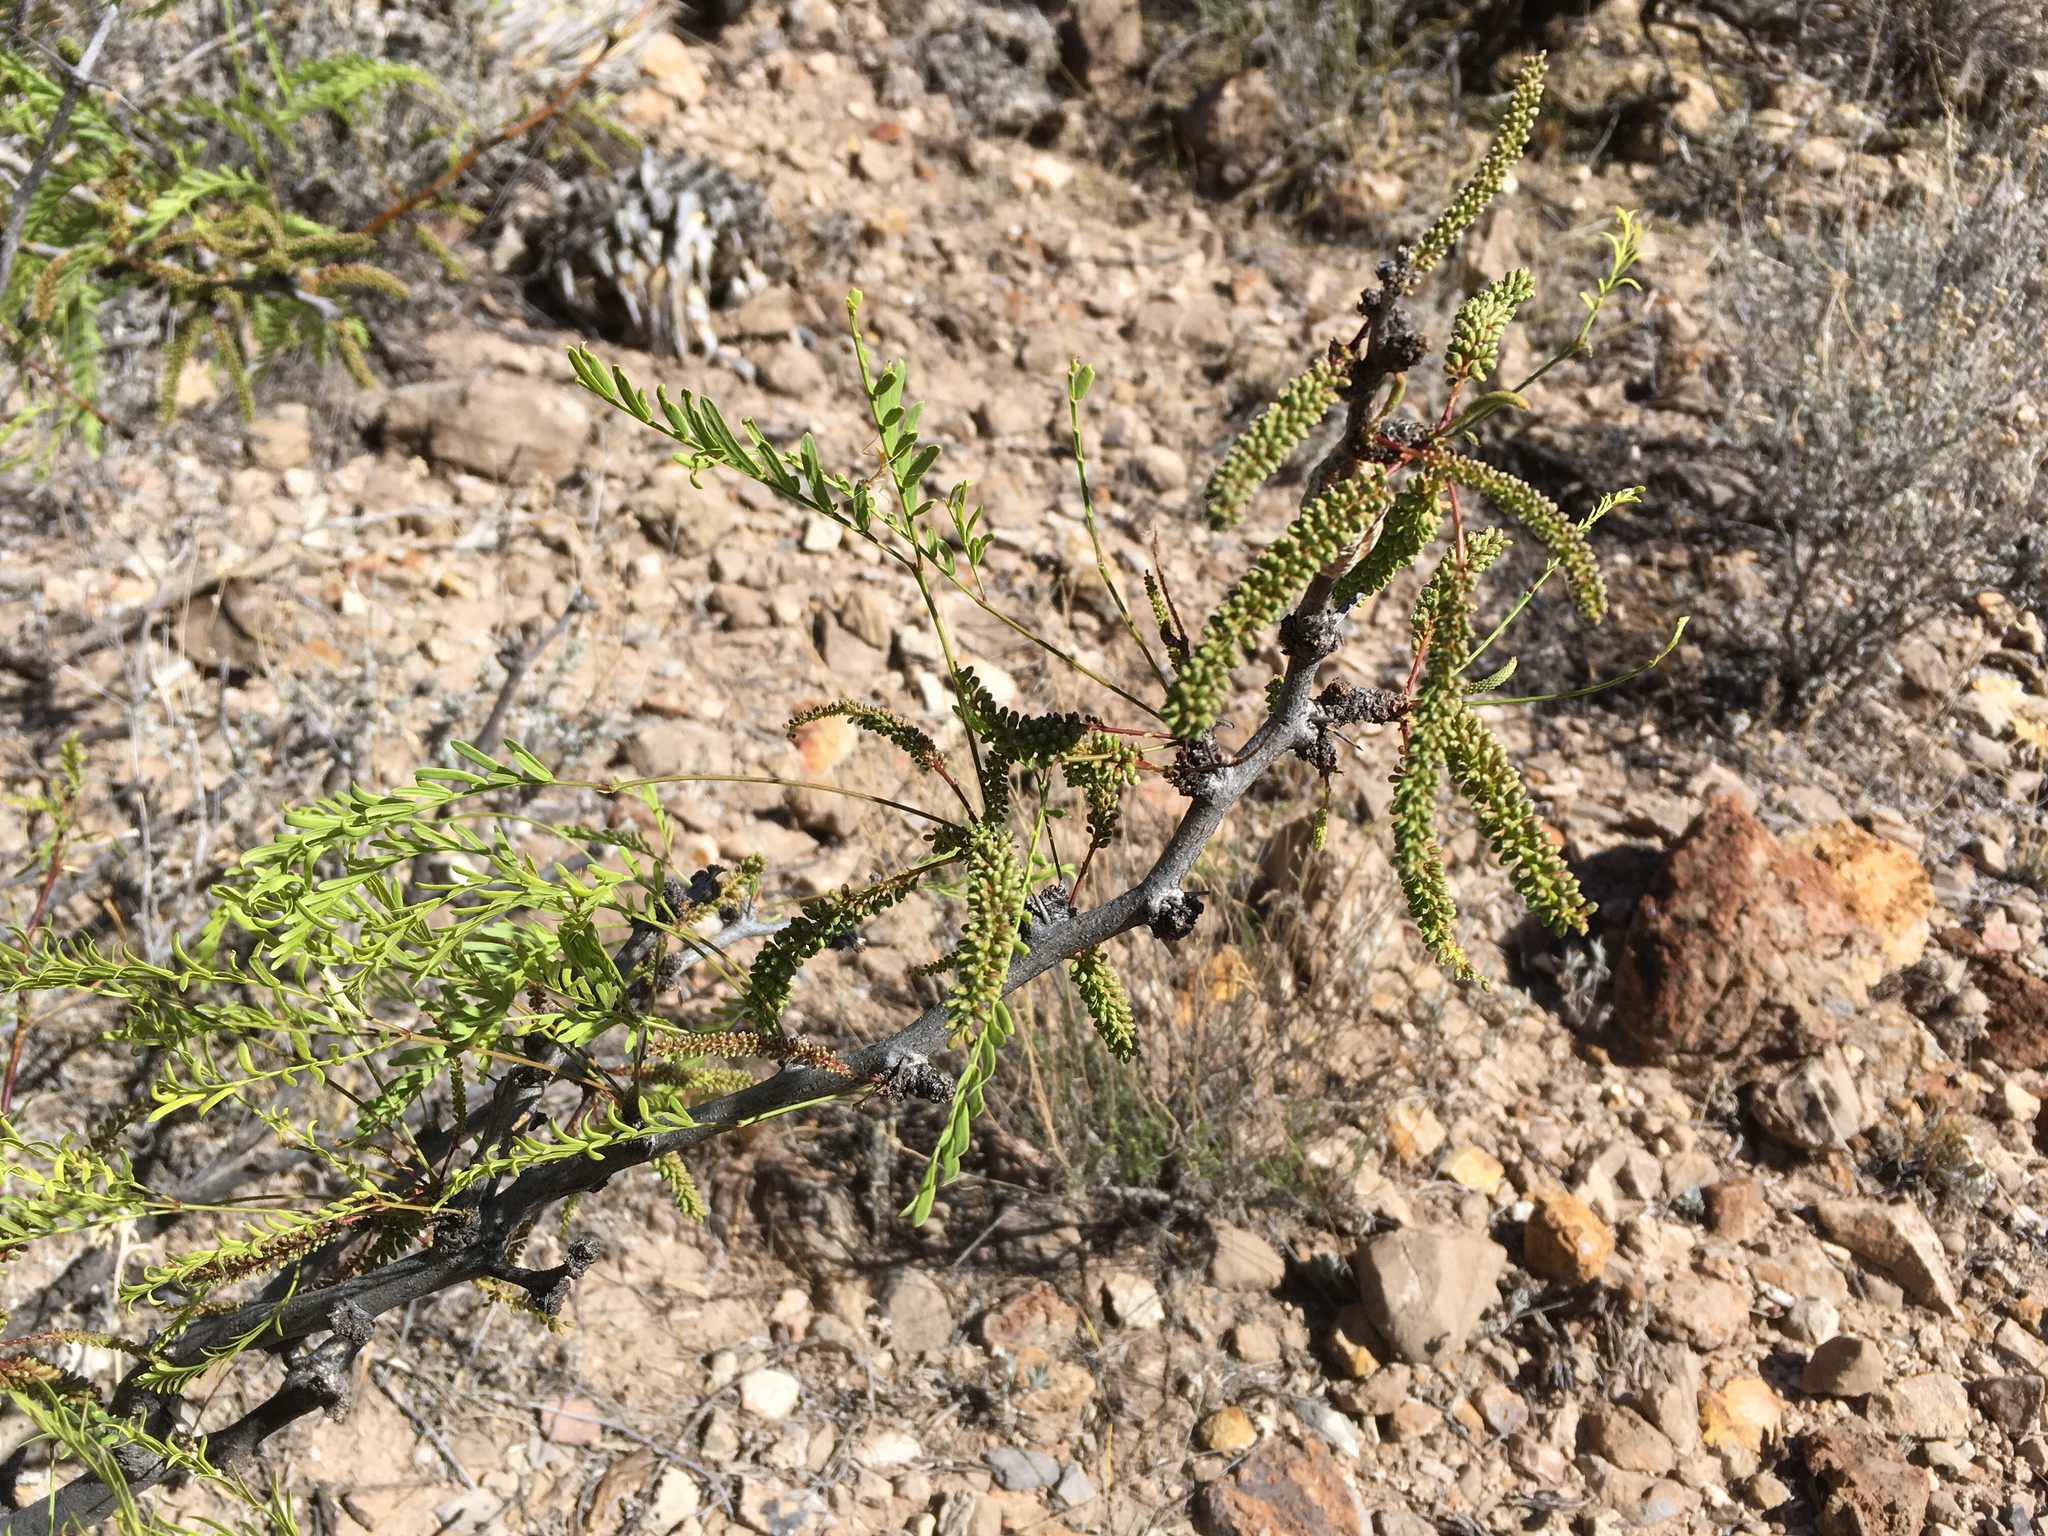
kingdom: Plantae
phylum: Tracheophyta
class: Magnoliopsida
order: Fabales
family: Fabaceae
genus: Prosopis
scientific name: Prosopis glandulosa
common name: Honey mesquite
